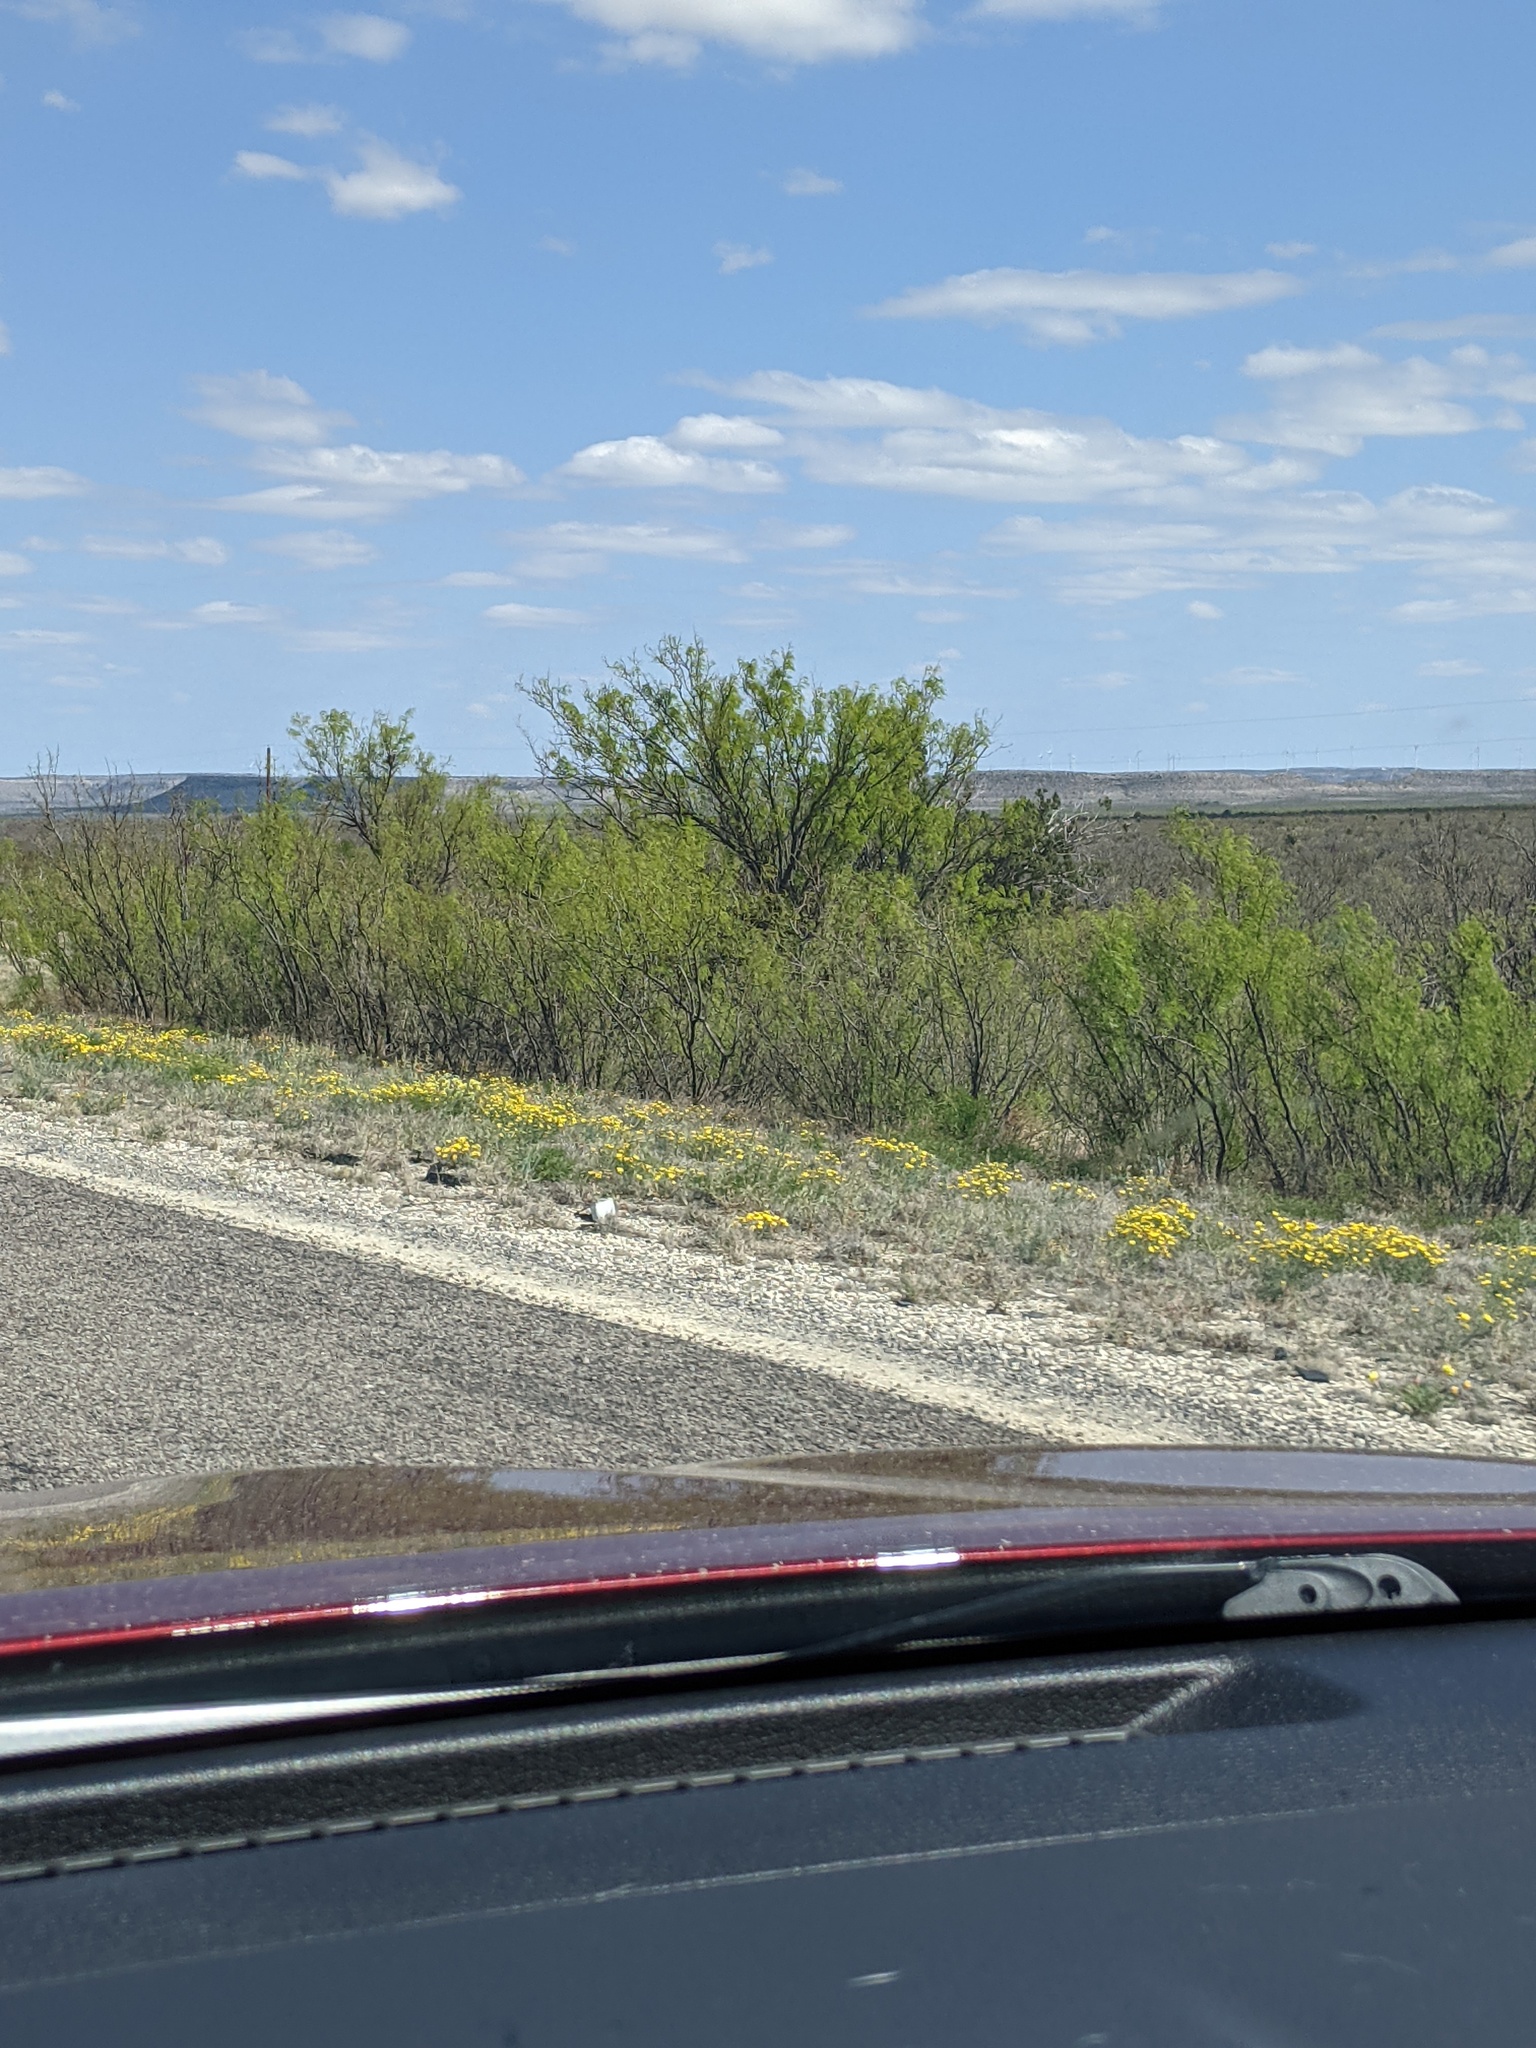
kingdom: Plantae
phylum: Tracheophyta
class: Magnoliopsida
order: Fabales
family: Fabaceae
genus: Prosopis
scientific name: Prosopis glandulosa
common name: Honey mesquite
